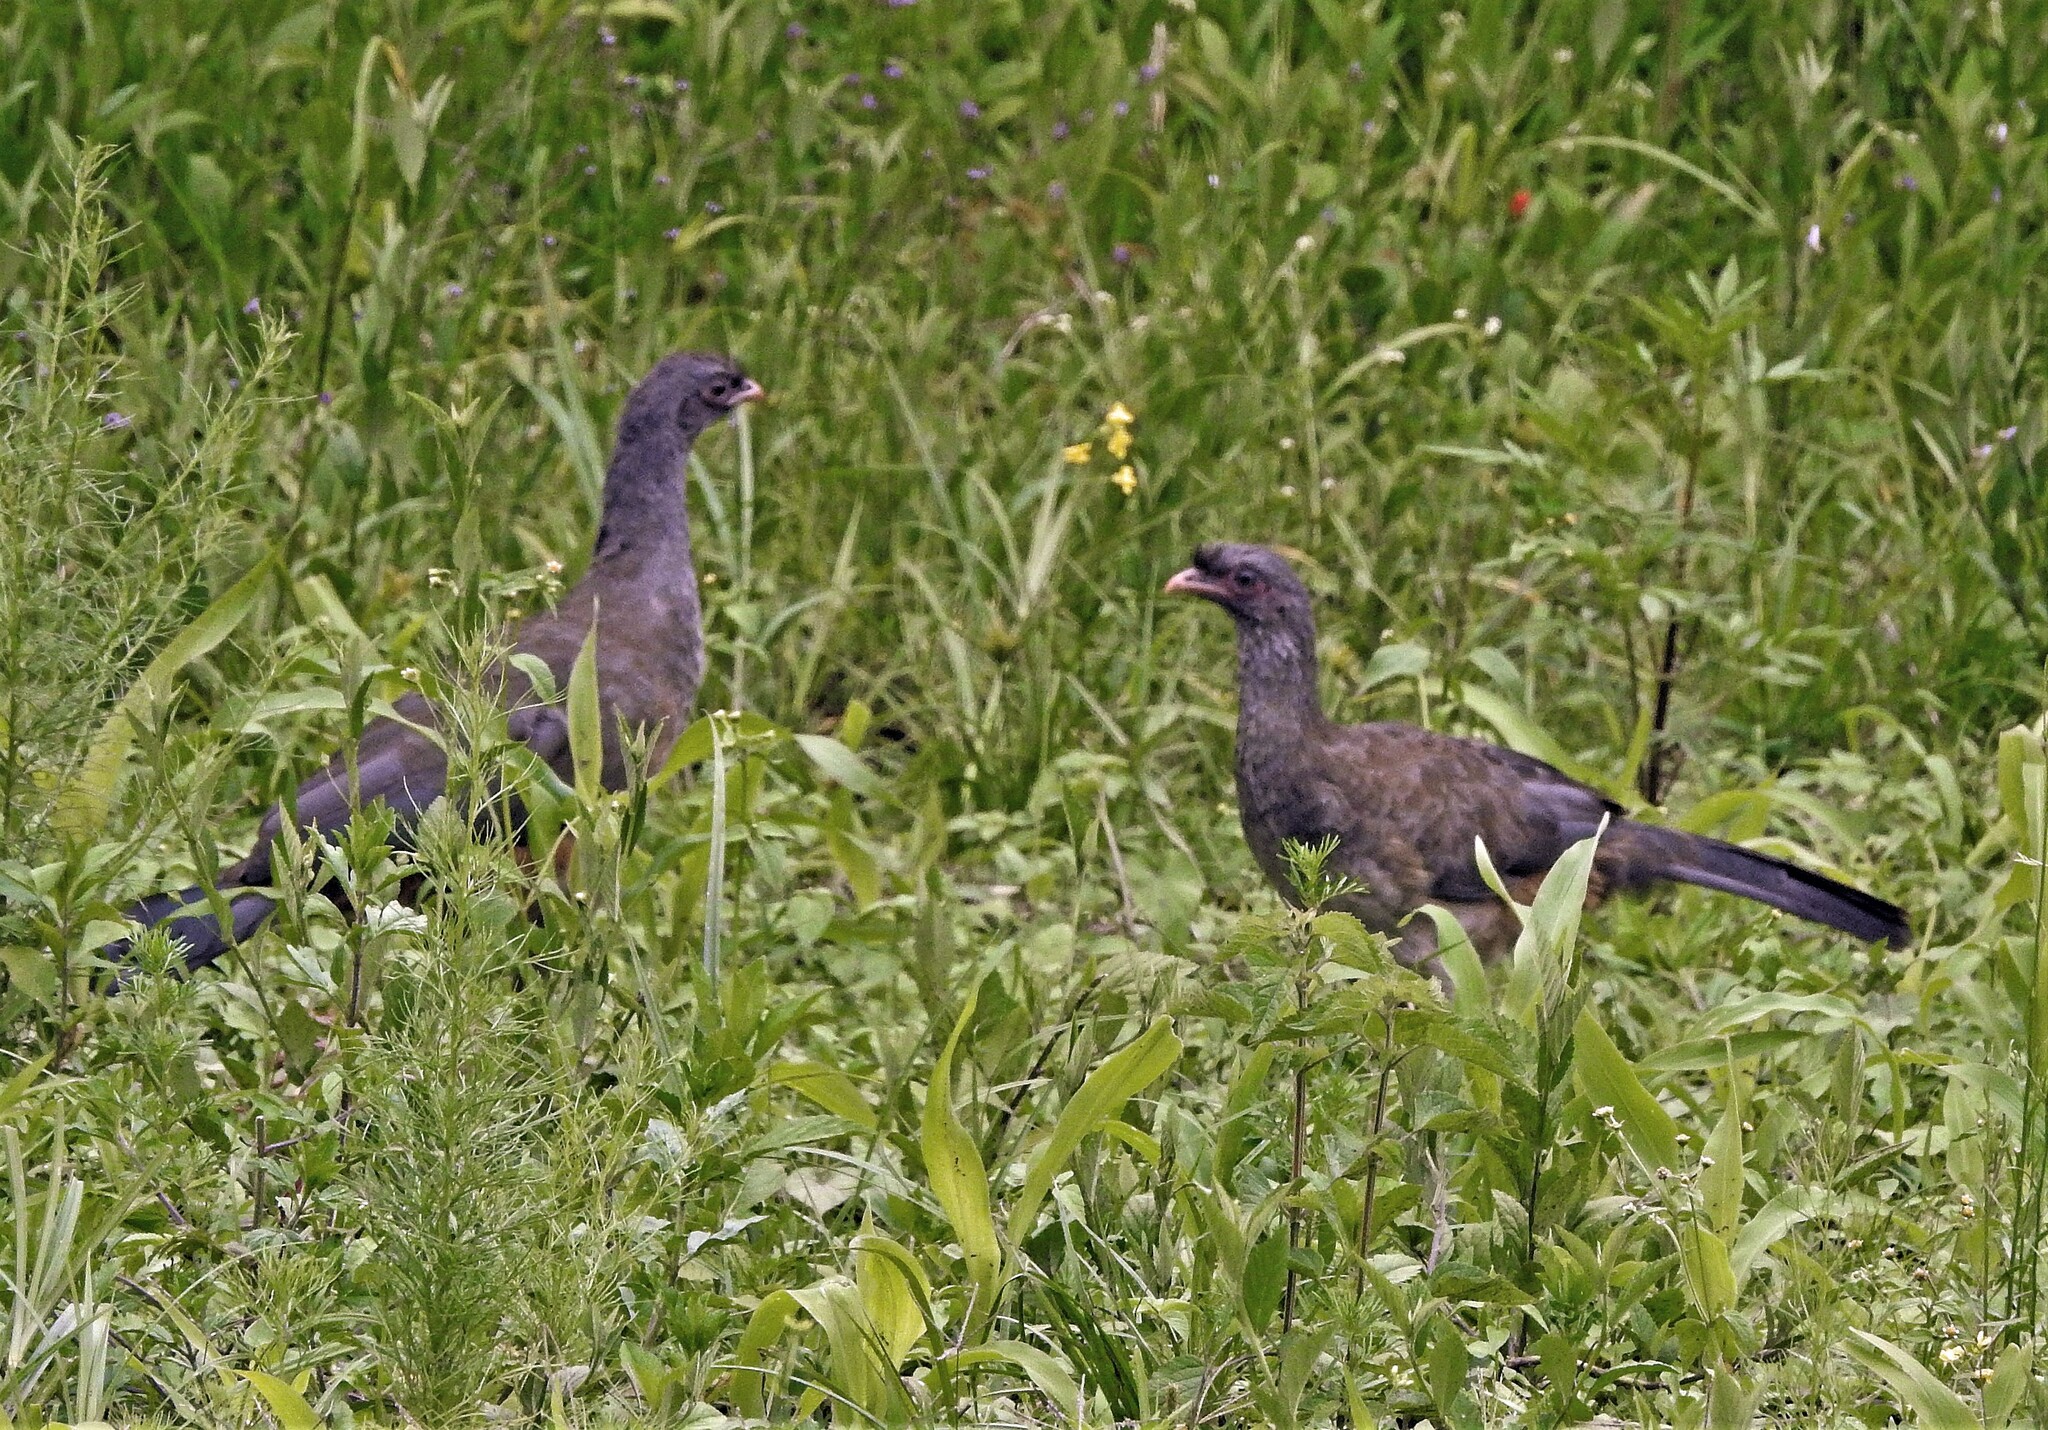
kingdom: Animalia
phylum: Chordata
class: Aves
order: Galliformes
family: Cracidae
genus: Ortalis
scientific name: Ortalis canicollis
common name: Chaco chachalaca
